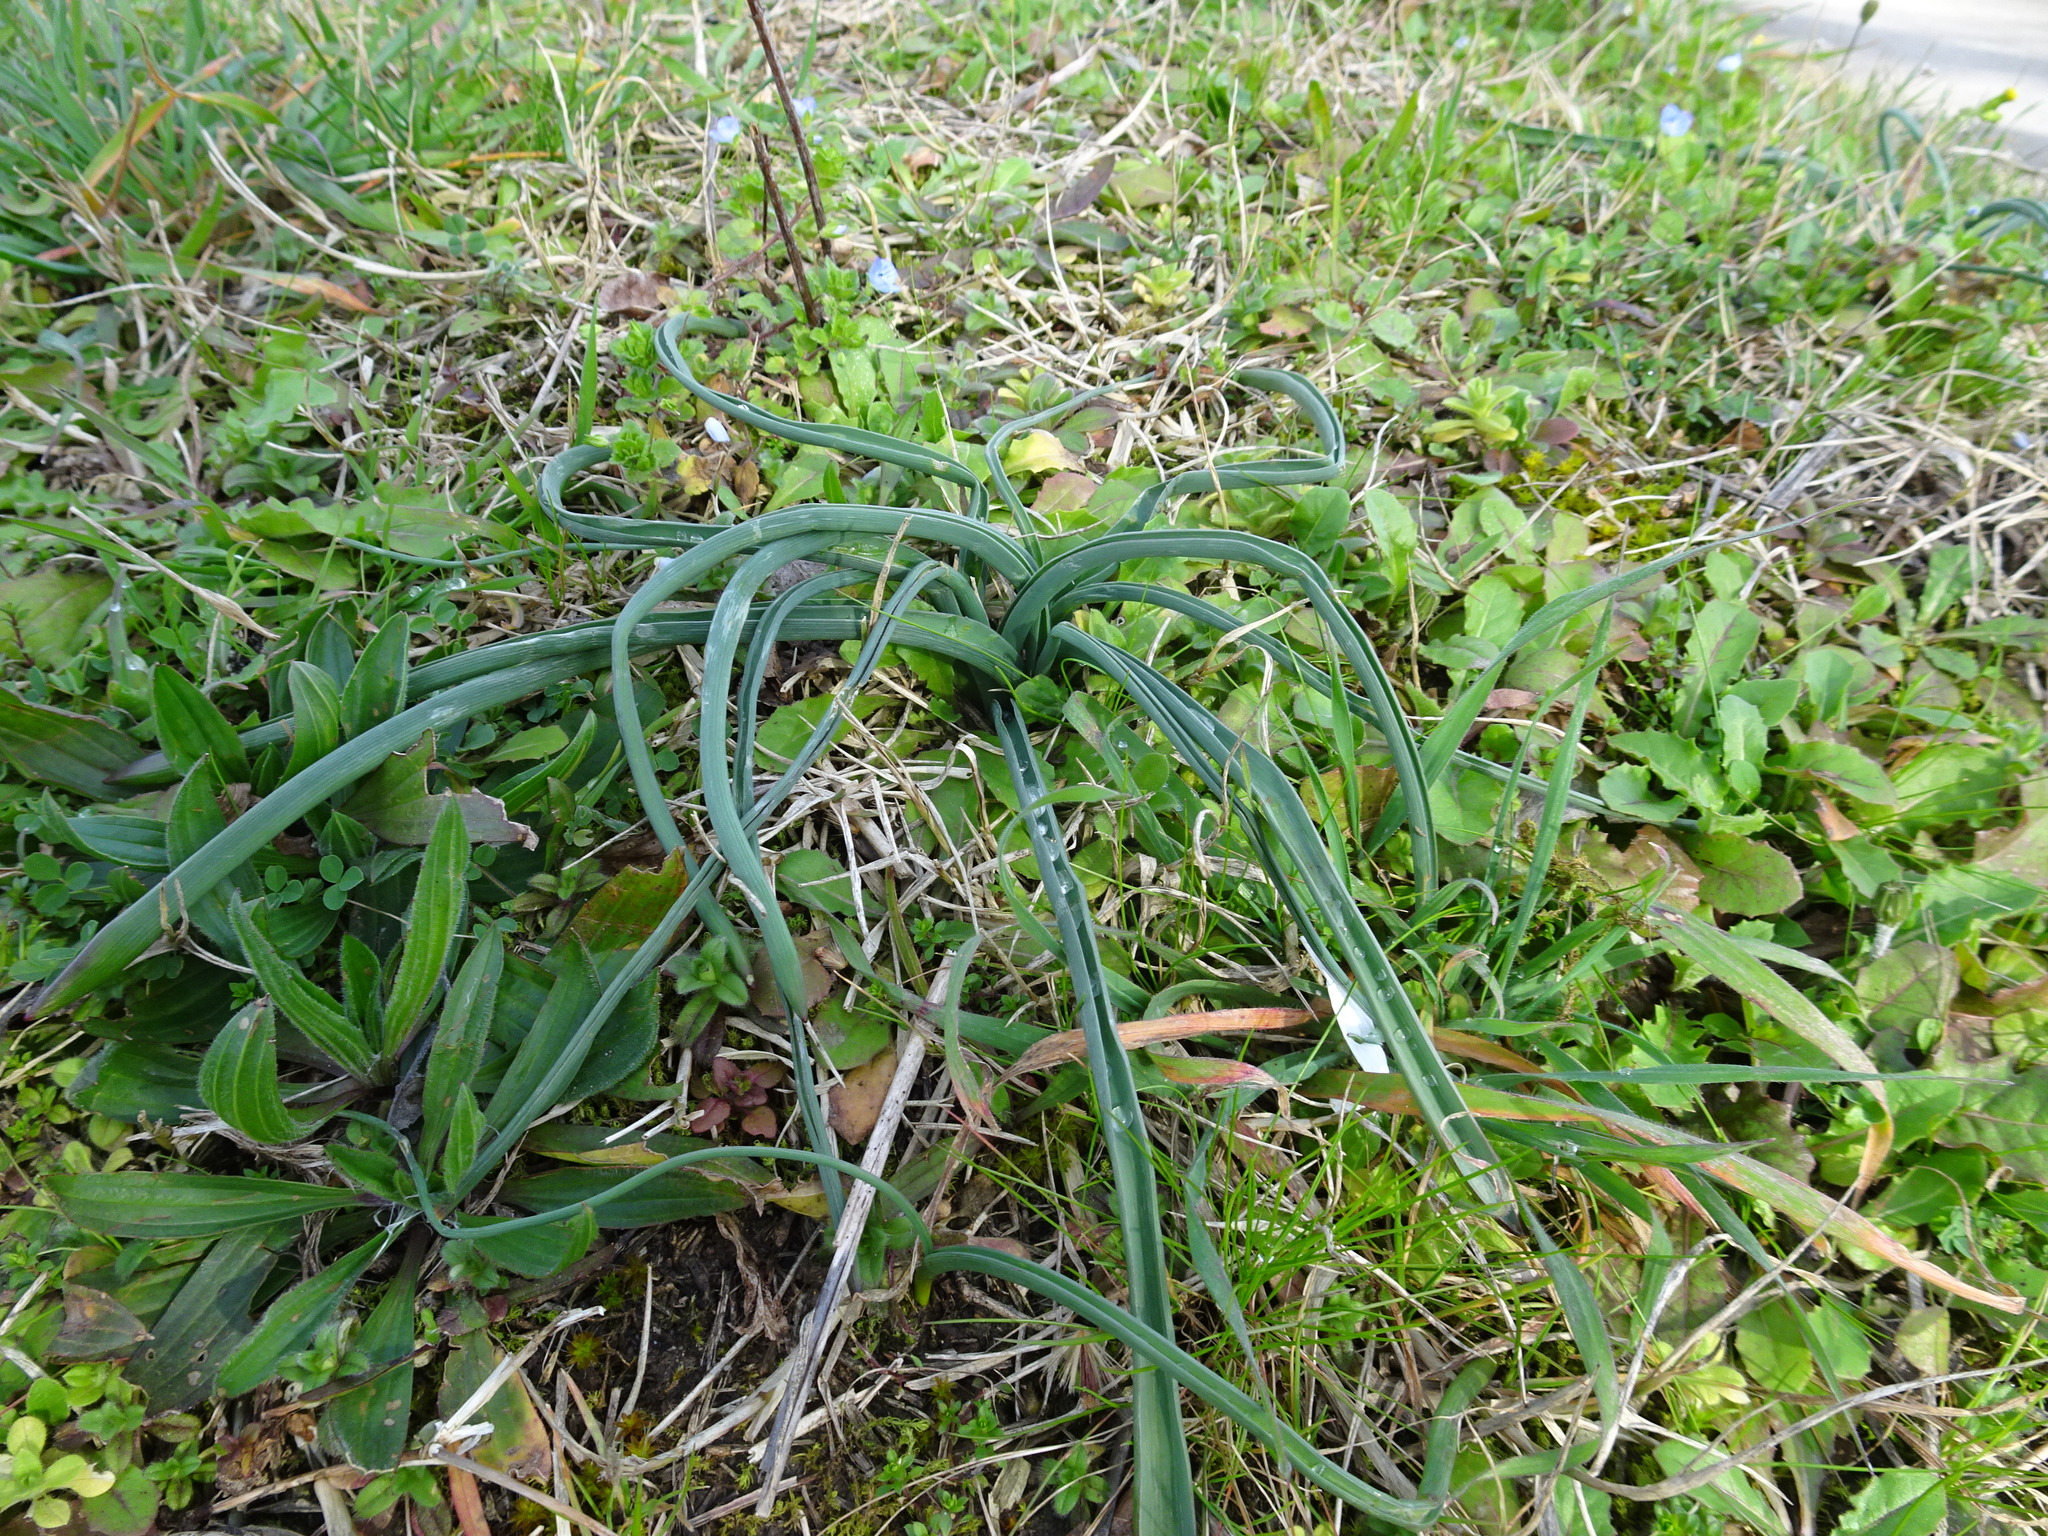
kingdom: Plantae
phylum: Tracheophyta
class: Liliopsida
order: Asparagales
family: Asparagaceae
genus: Muscari
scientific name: Muscari comosum
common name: Tassel hyacinth
